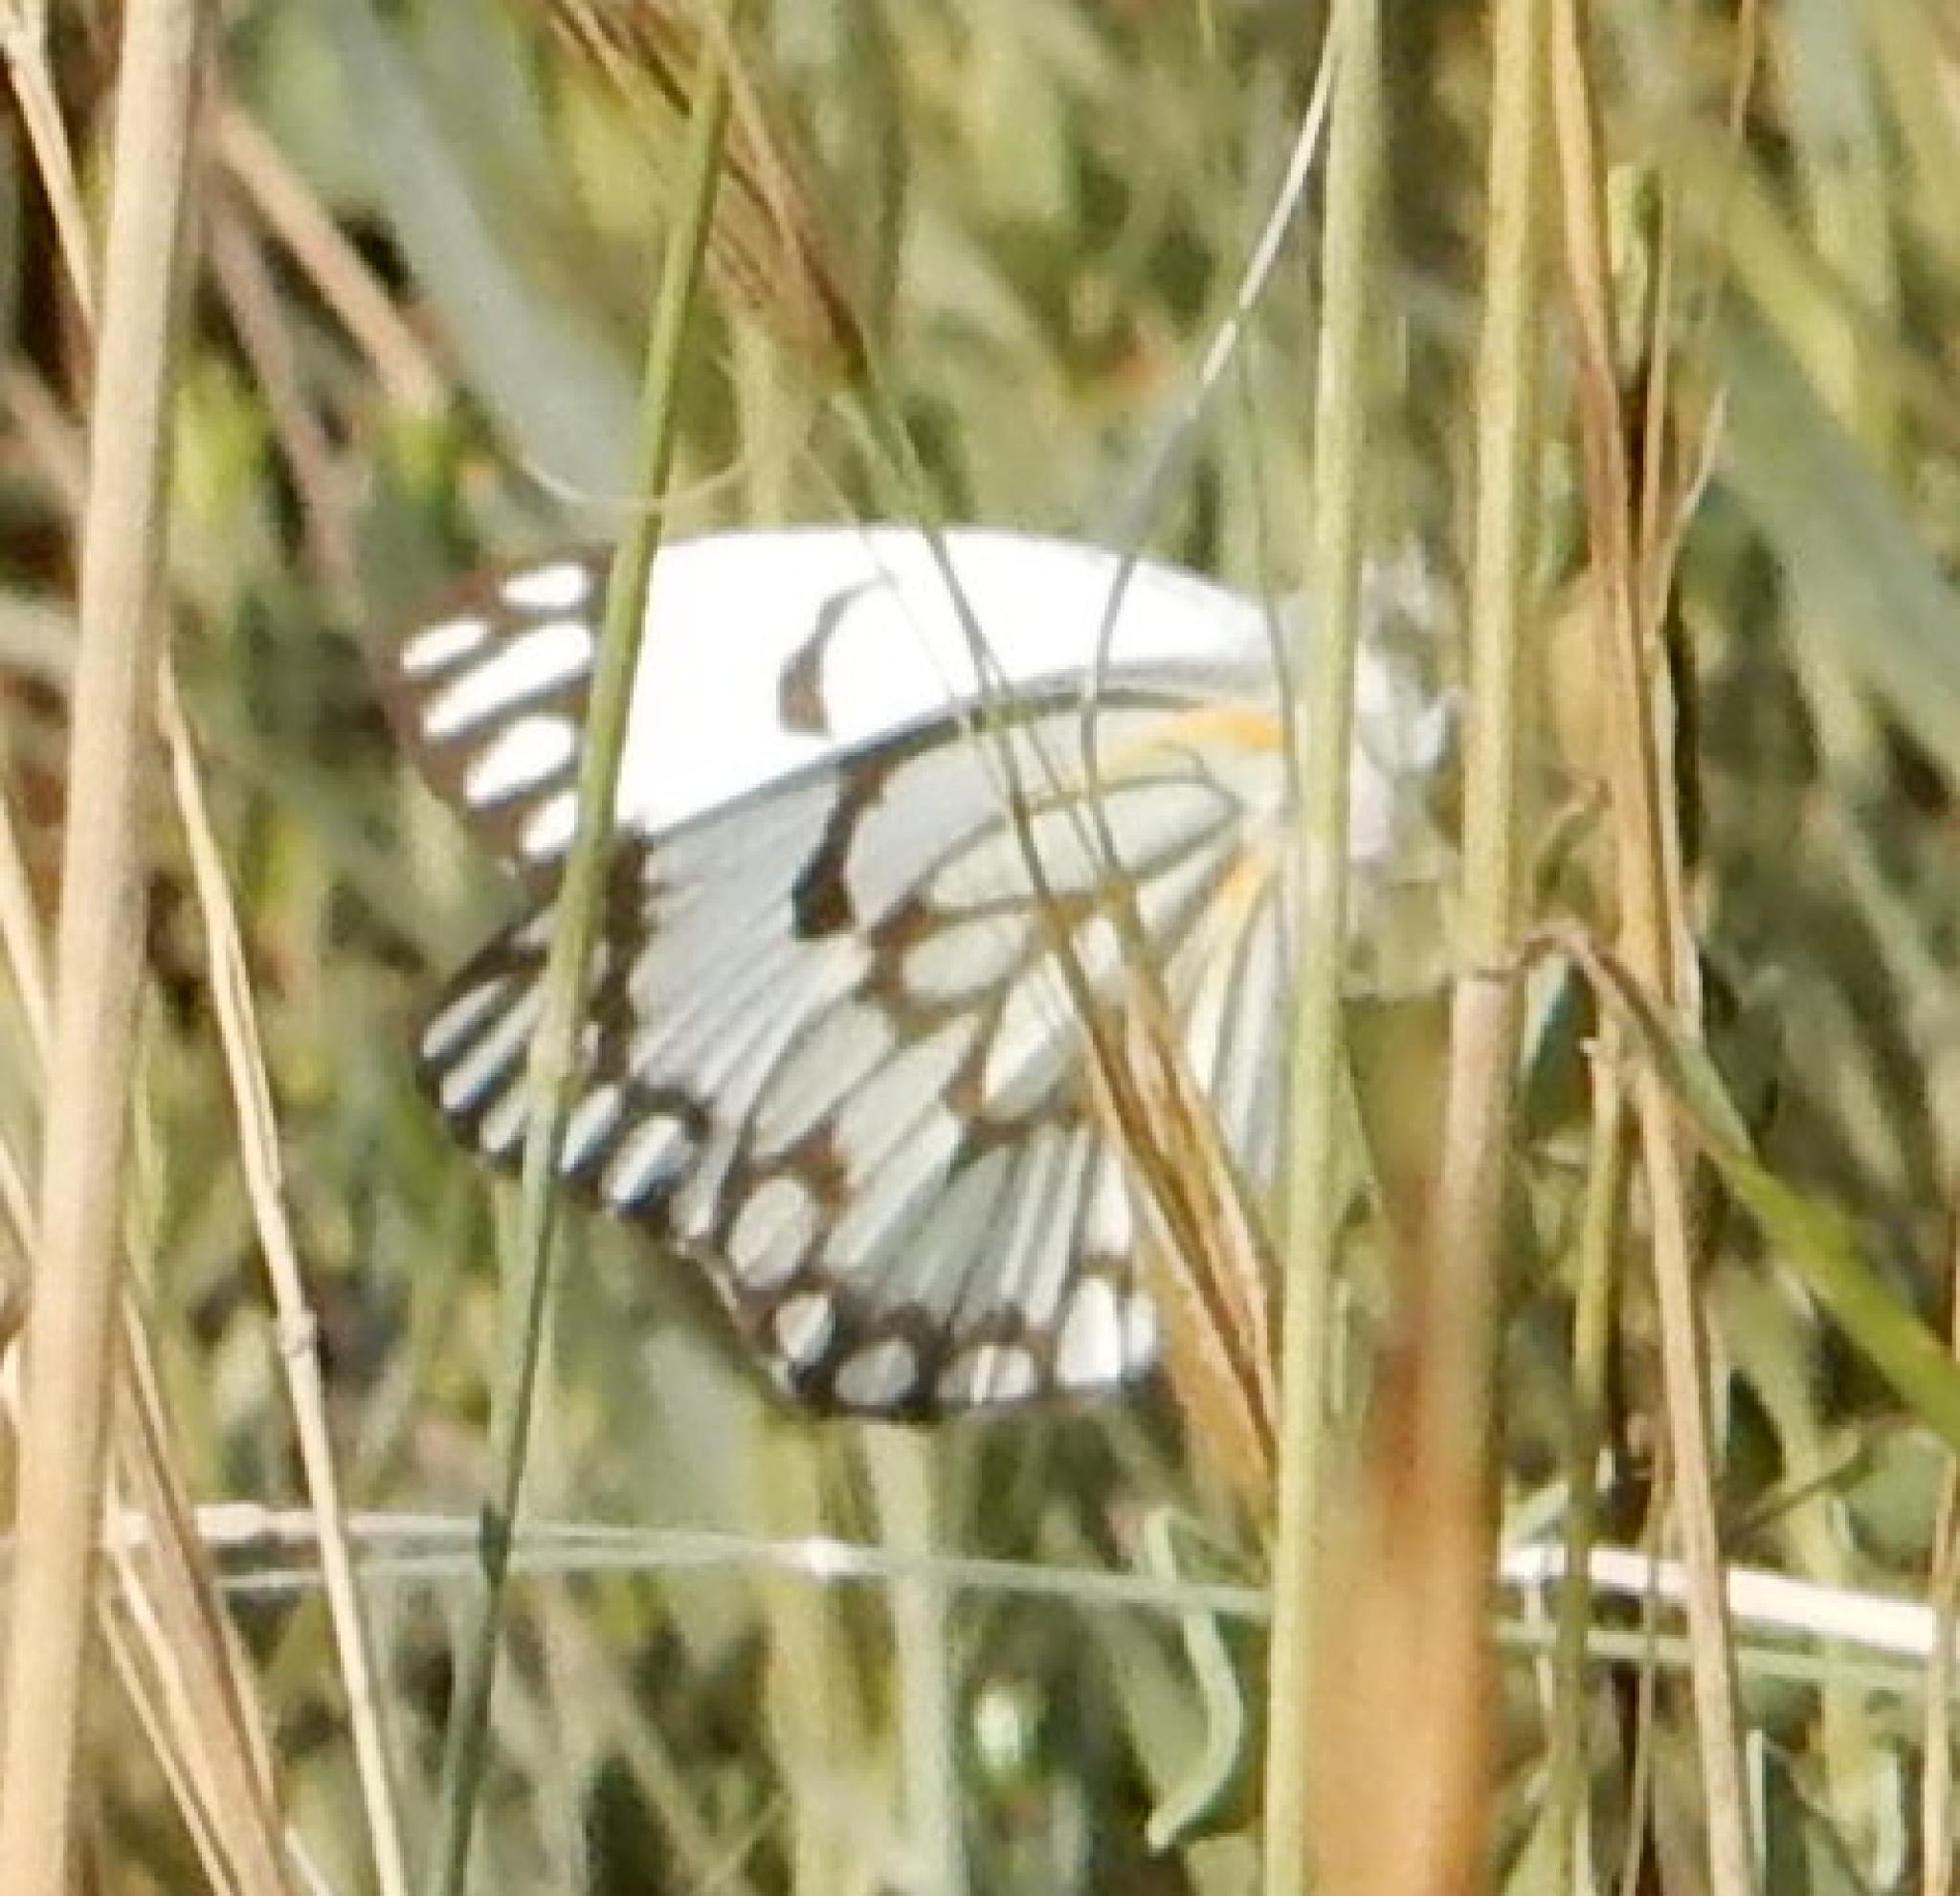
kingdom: Animalia
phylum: Arthropoda
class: Insecta
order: Lepidoptera
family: Pieridae
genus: Belenois
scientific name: Belenois aurota
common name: Brown-veined white
